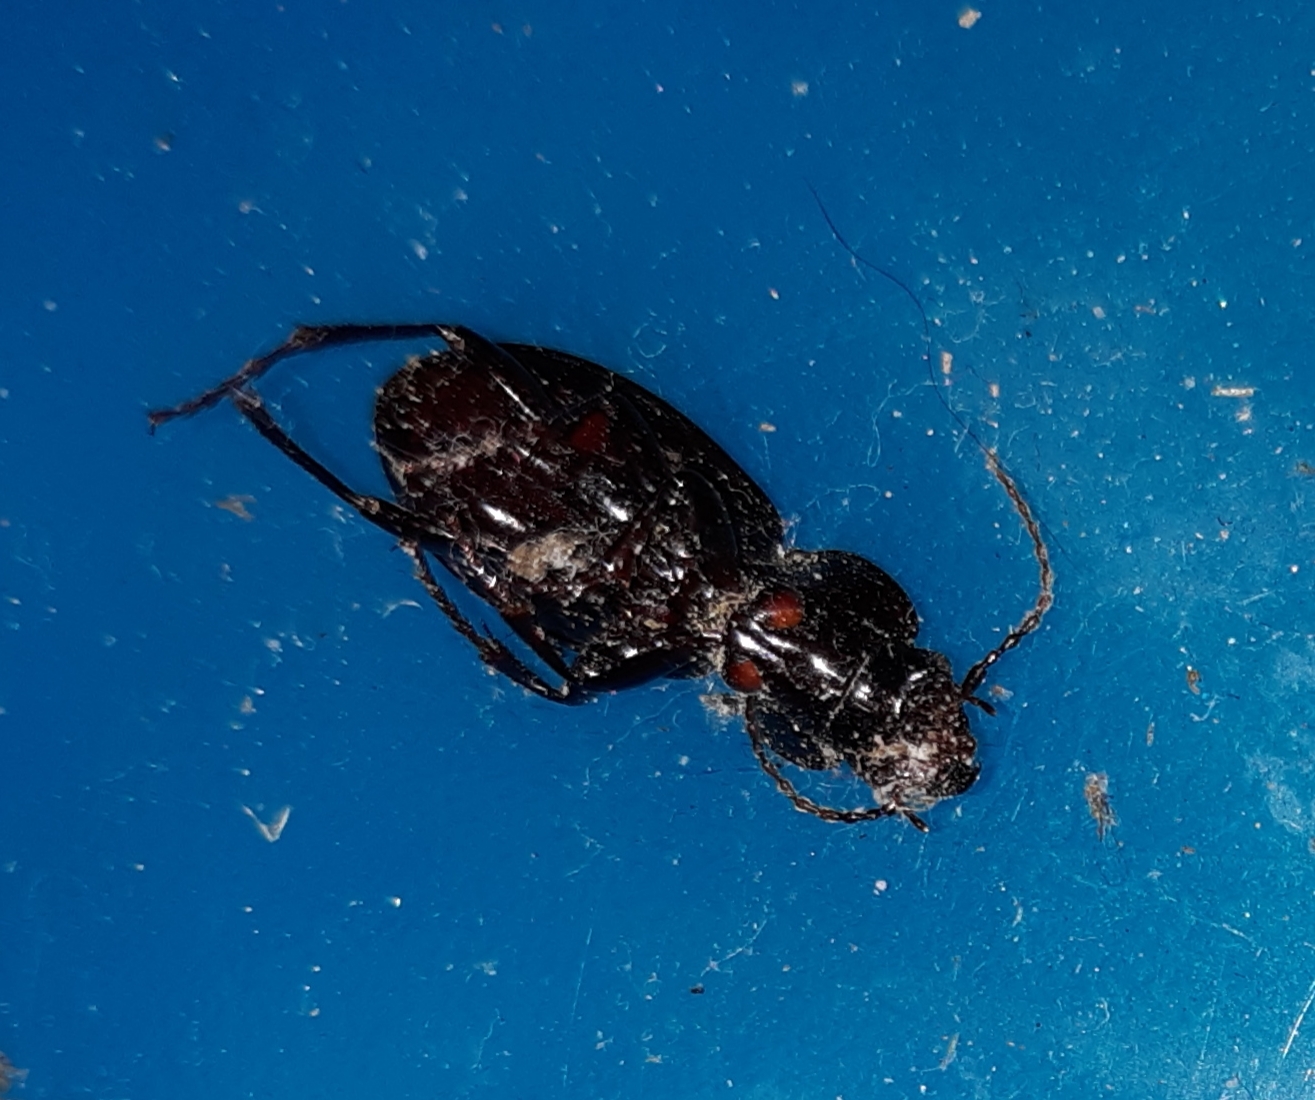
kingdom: Animalia
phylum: Arthropoda
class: Insecta
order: Coleoptera
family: Carabidae
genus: Cyclotrachelus
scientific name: Cyclotrachelus sodalis
